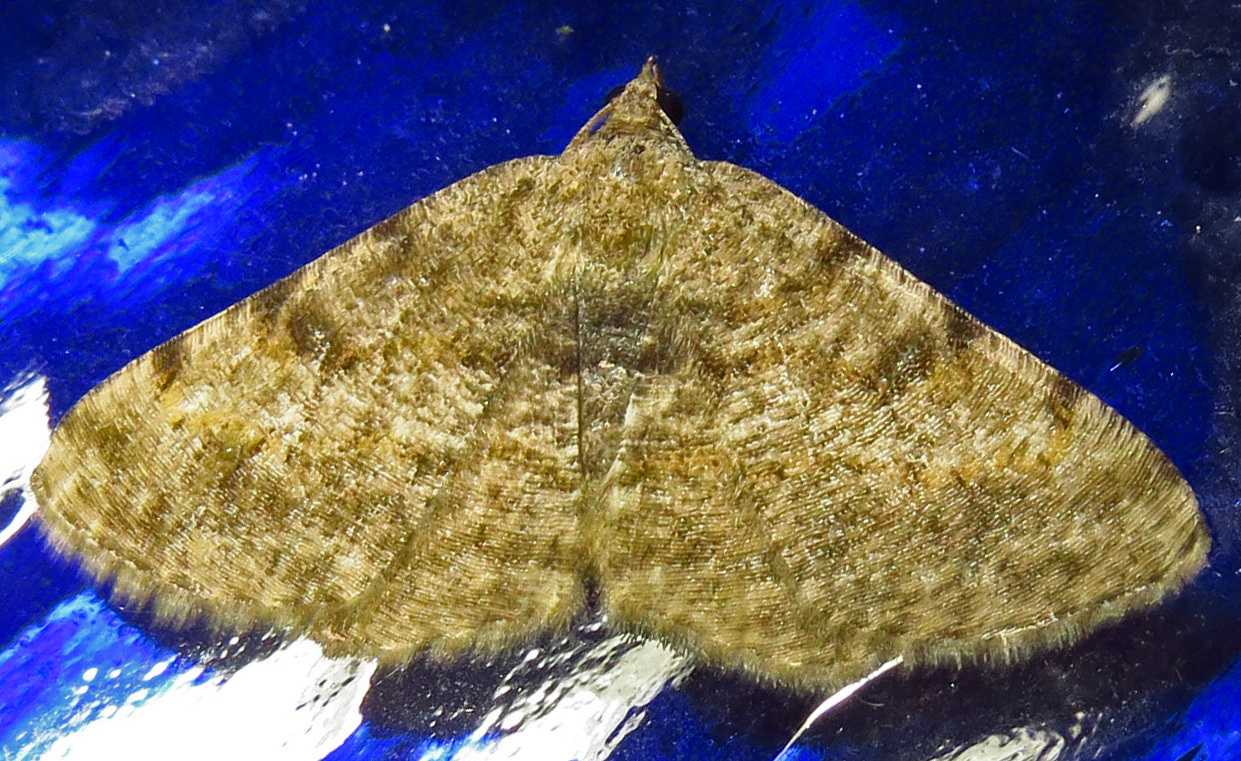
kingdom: Animalia
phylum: Arthropoda
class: Insecta
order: Lepidoptera
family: Geometridae
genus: Digrammia
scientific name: Digrammia gnophosaria
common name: Hollow-spotted angle
